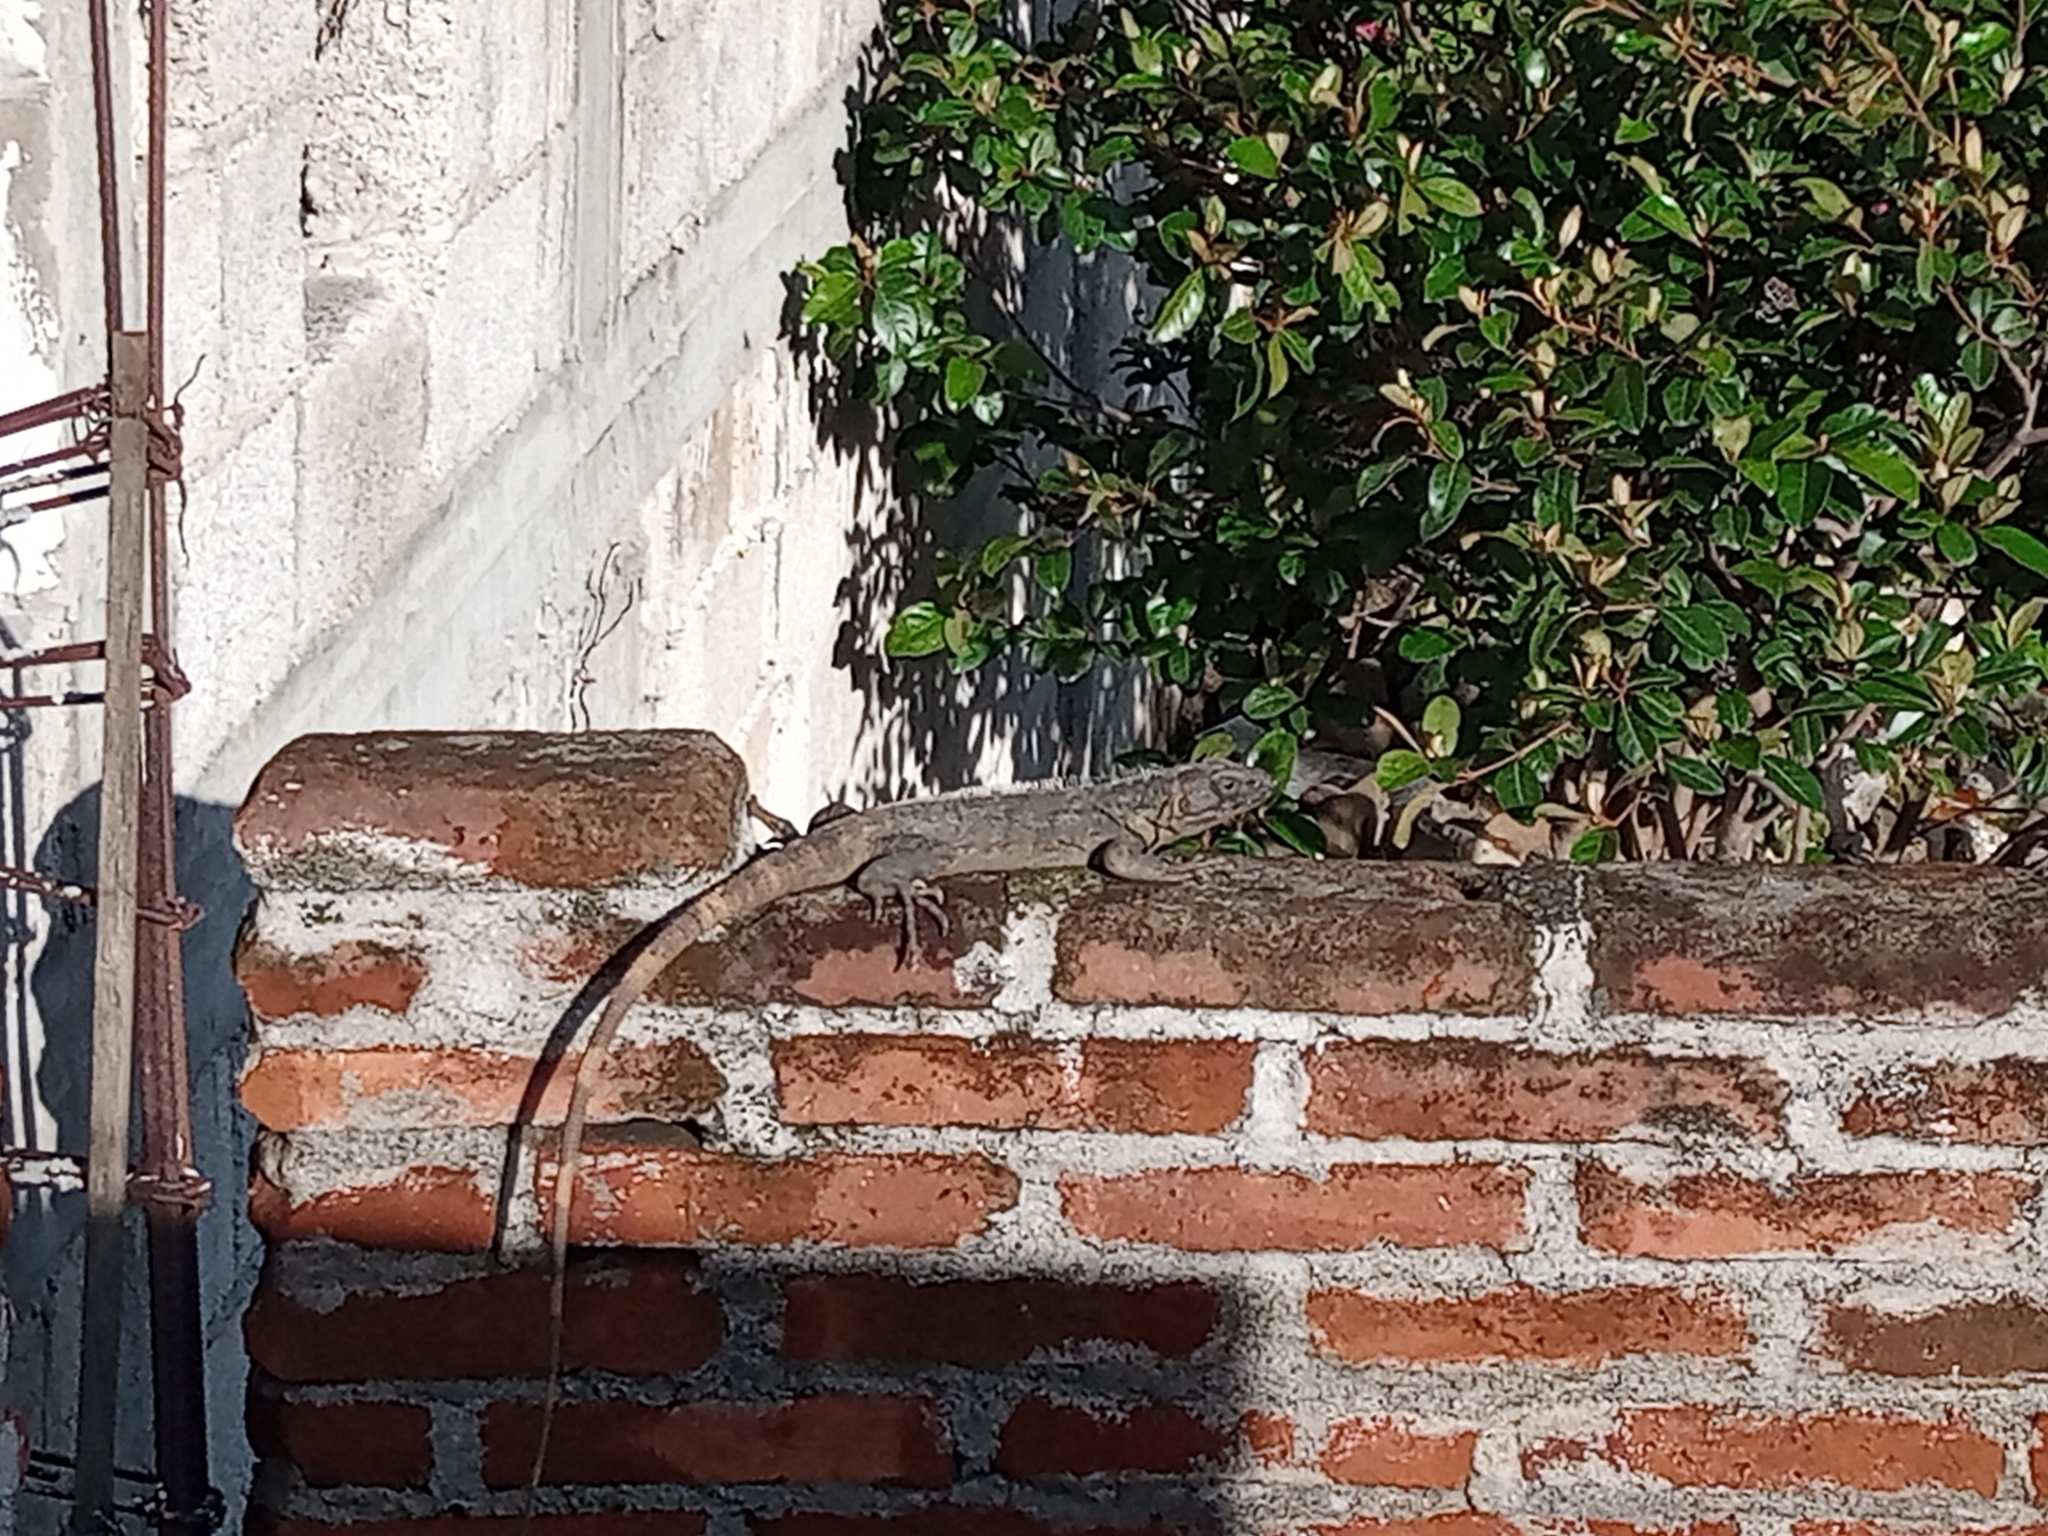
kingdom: Animalia
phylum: Chordata
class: Squamata
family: Iguanidae
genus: Ctenosaura
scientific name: Ctenosaura pectinata
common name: Guerreran spiny-tailed iguana
